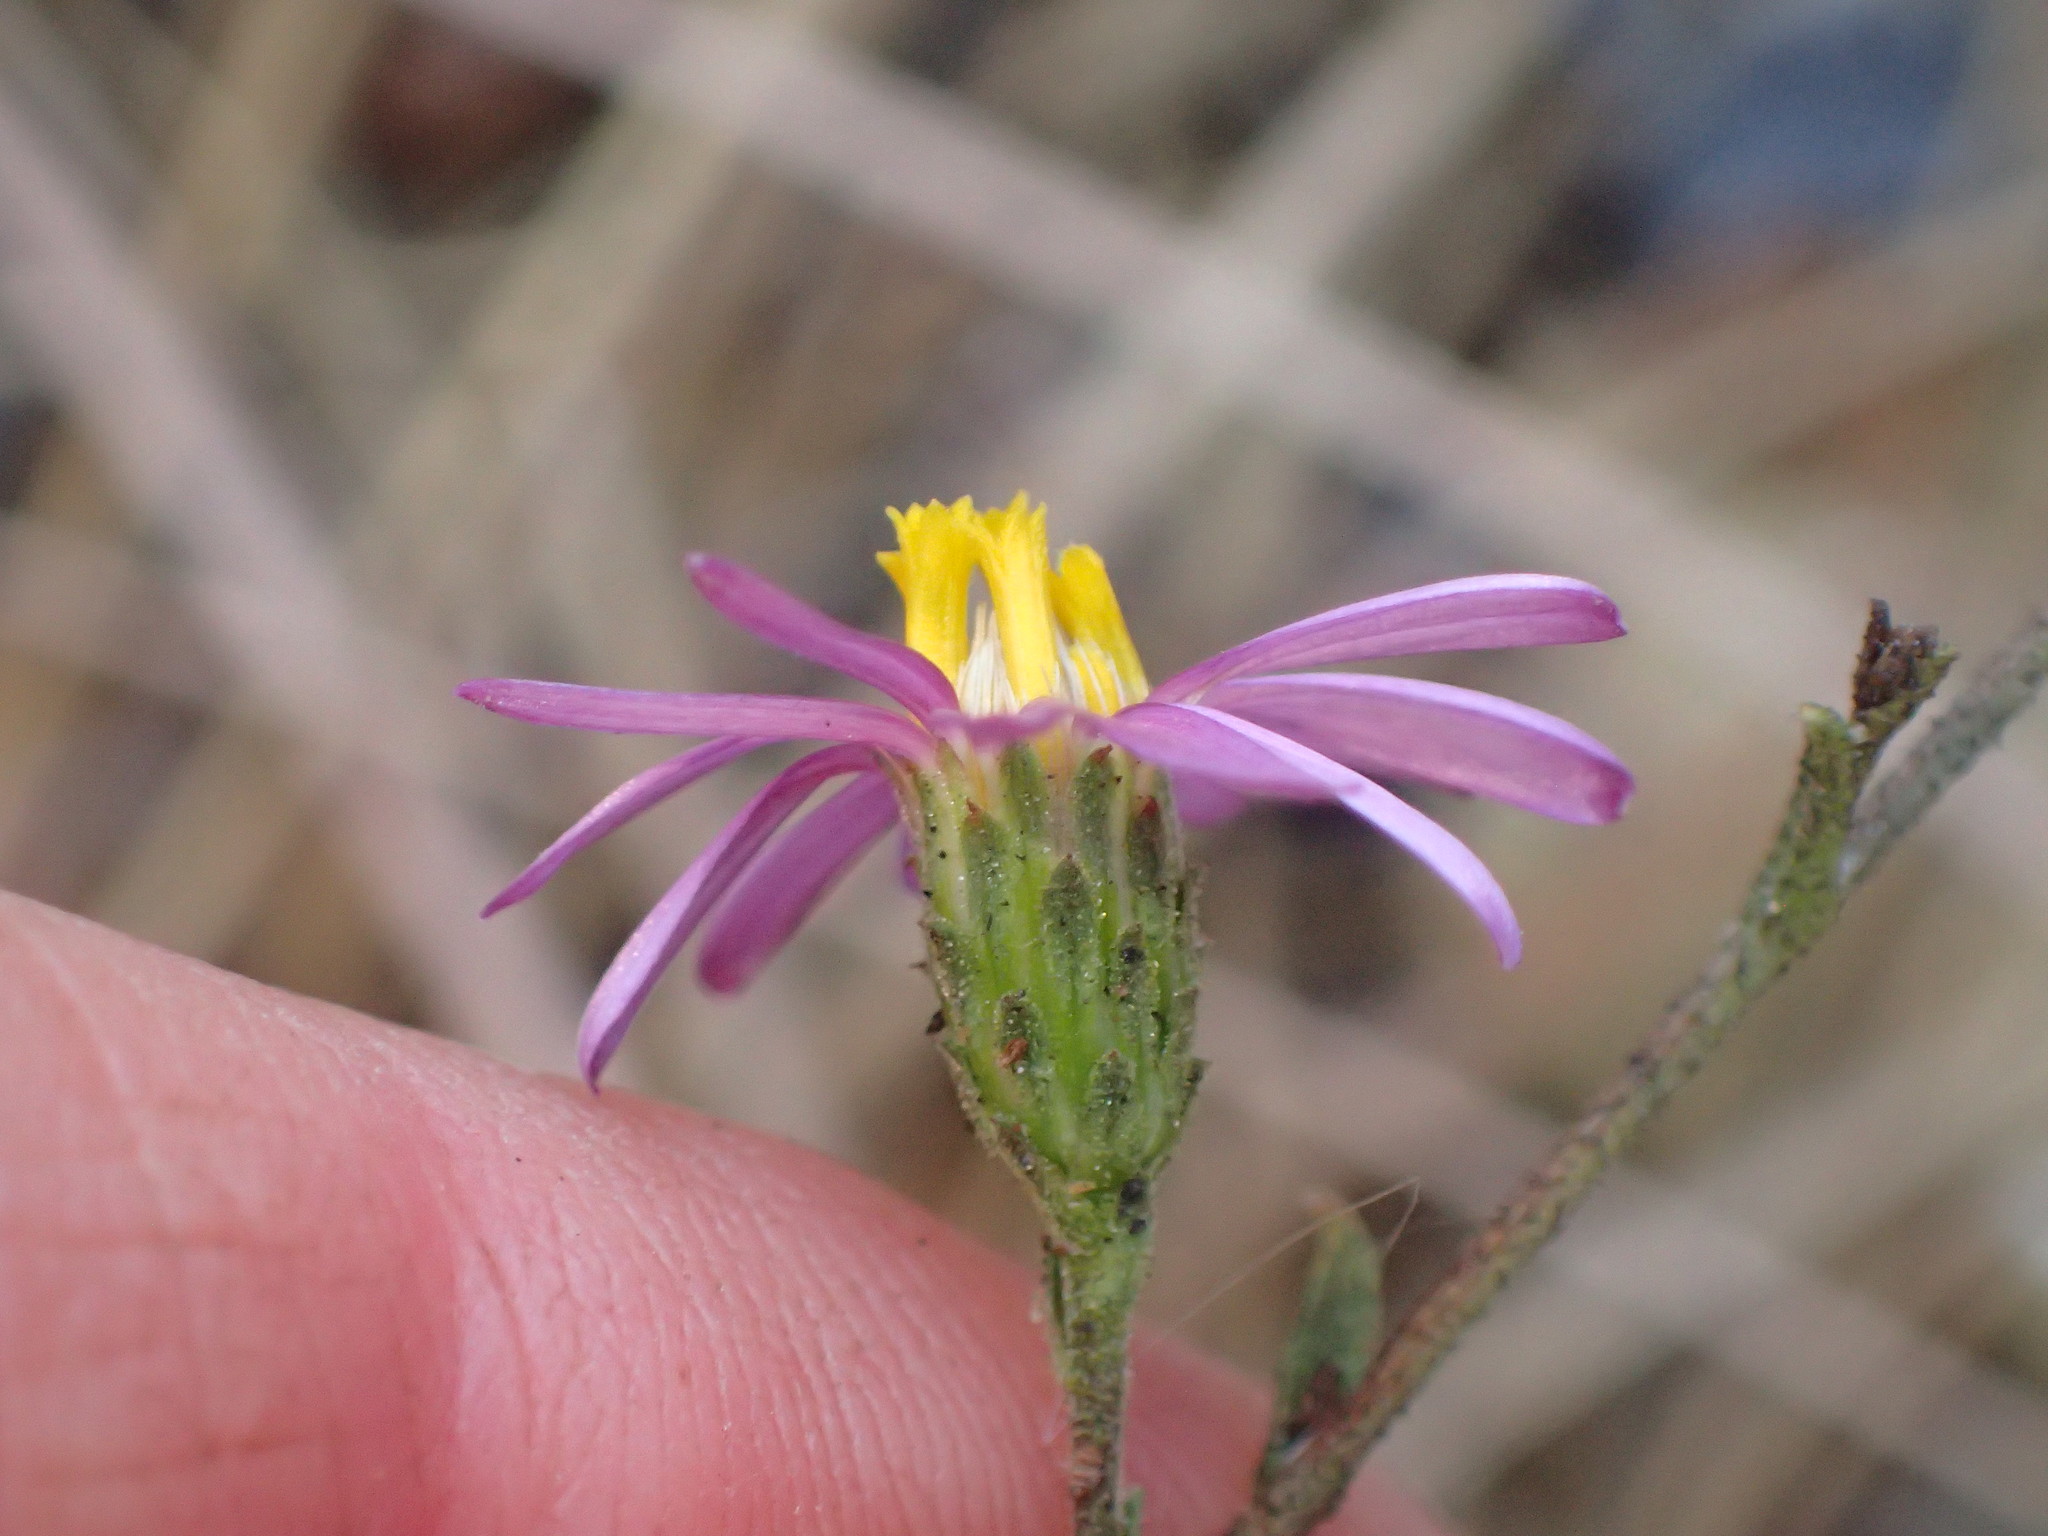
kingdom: Plantae
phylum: Tracheophyta
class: Magnoliopsida
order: Asterales
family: Asteraceae
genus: Corethrogyne
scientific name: Corethrogyne filaginifolia
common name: Sand-aster
